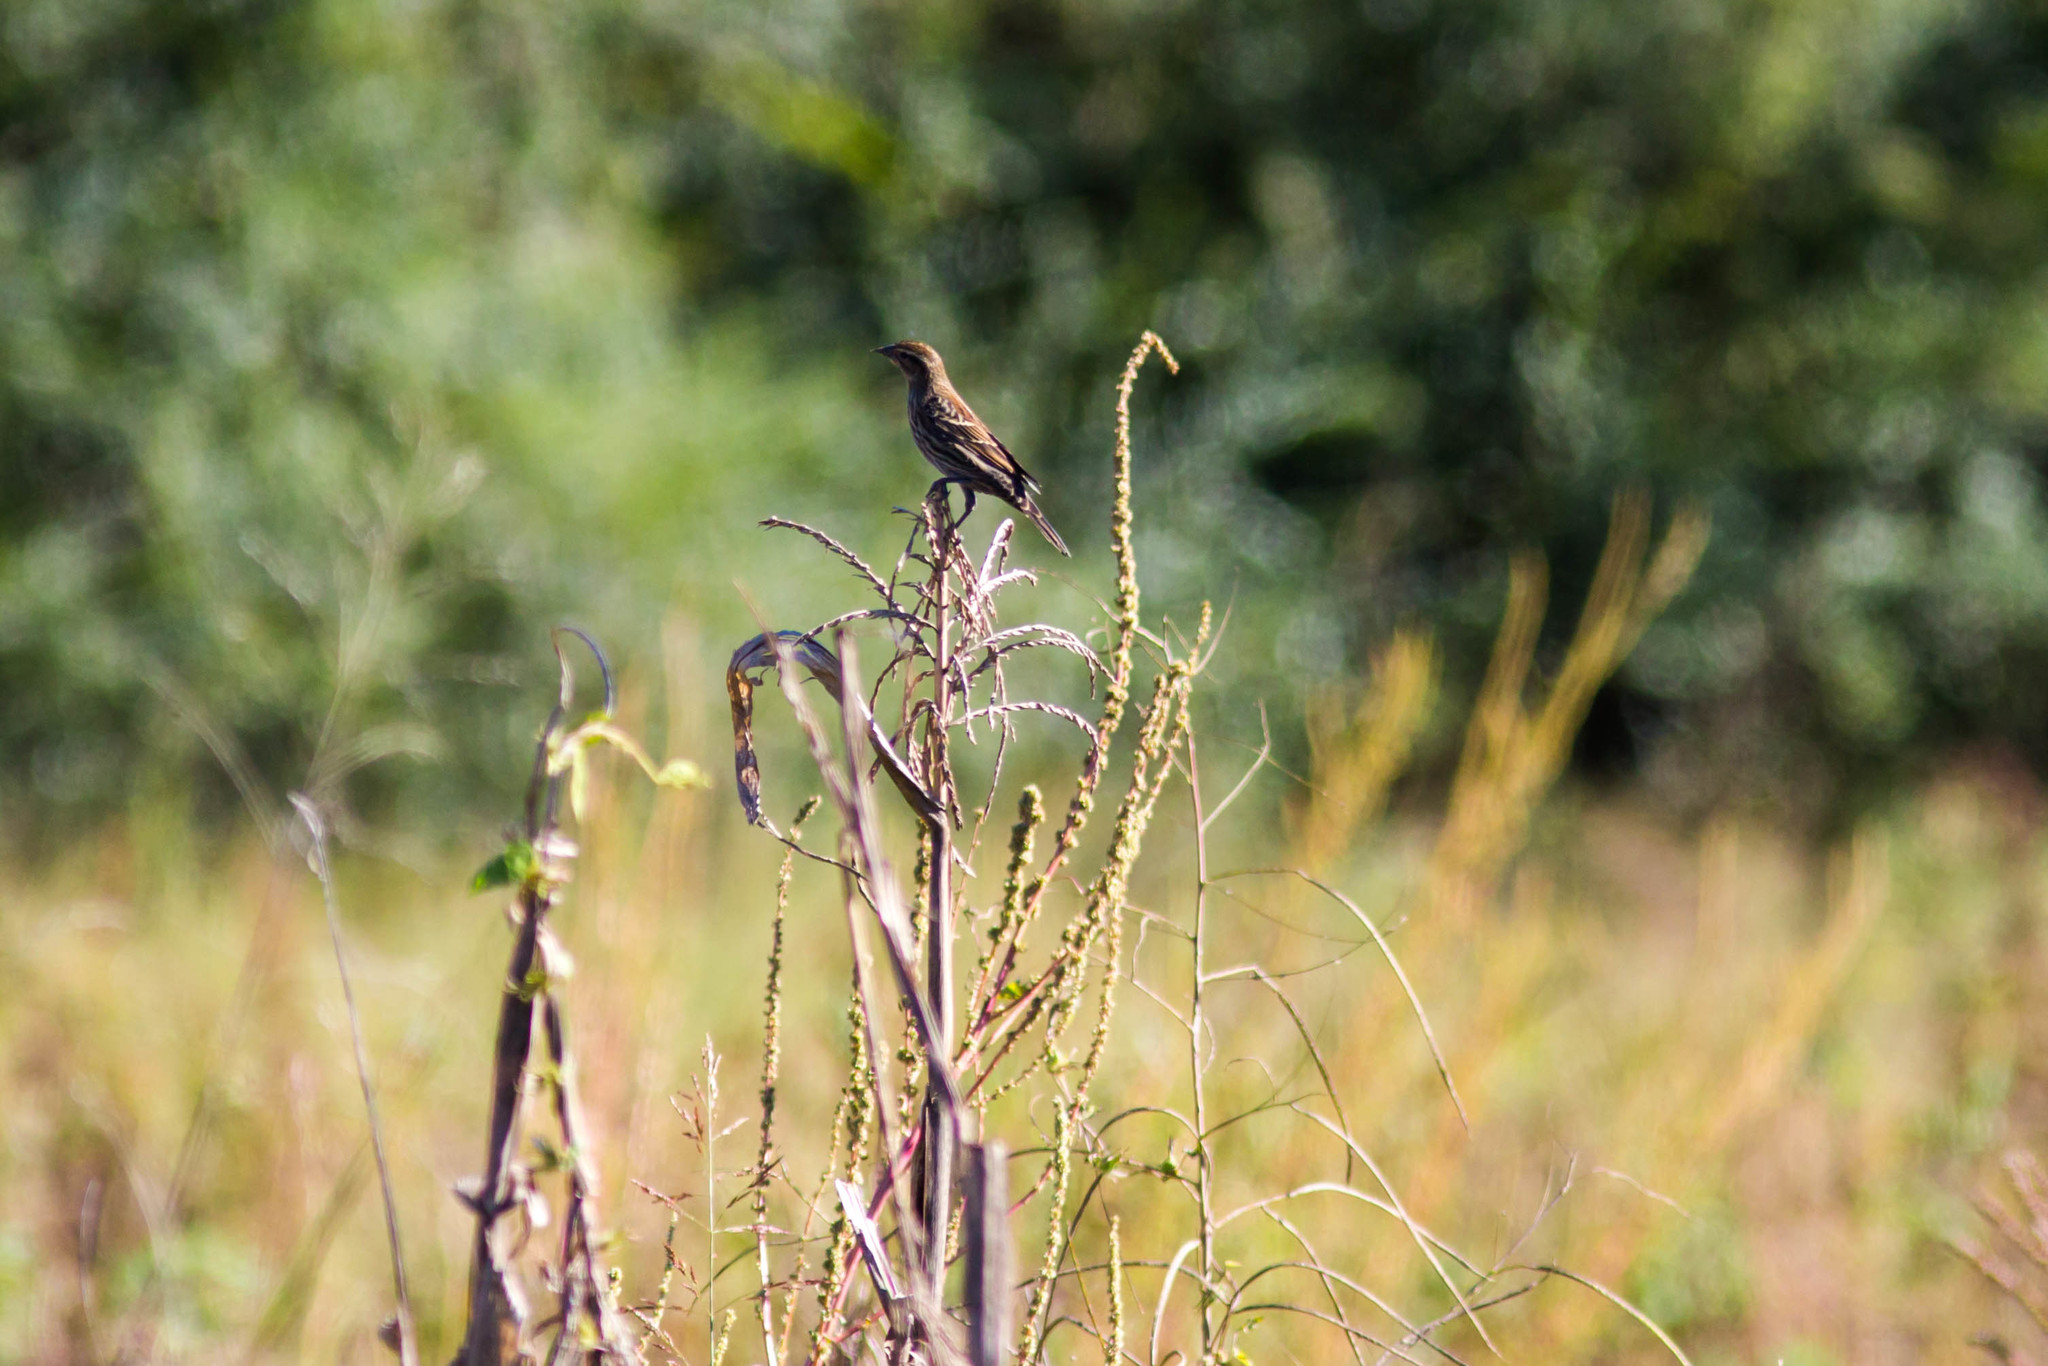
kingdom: Animalia
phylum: Chordata
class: Aves
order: Passeriformes
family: Icteridae
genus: Agelaius
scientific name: Agelaius phoeniceus
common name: Red-winged blackbird
